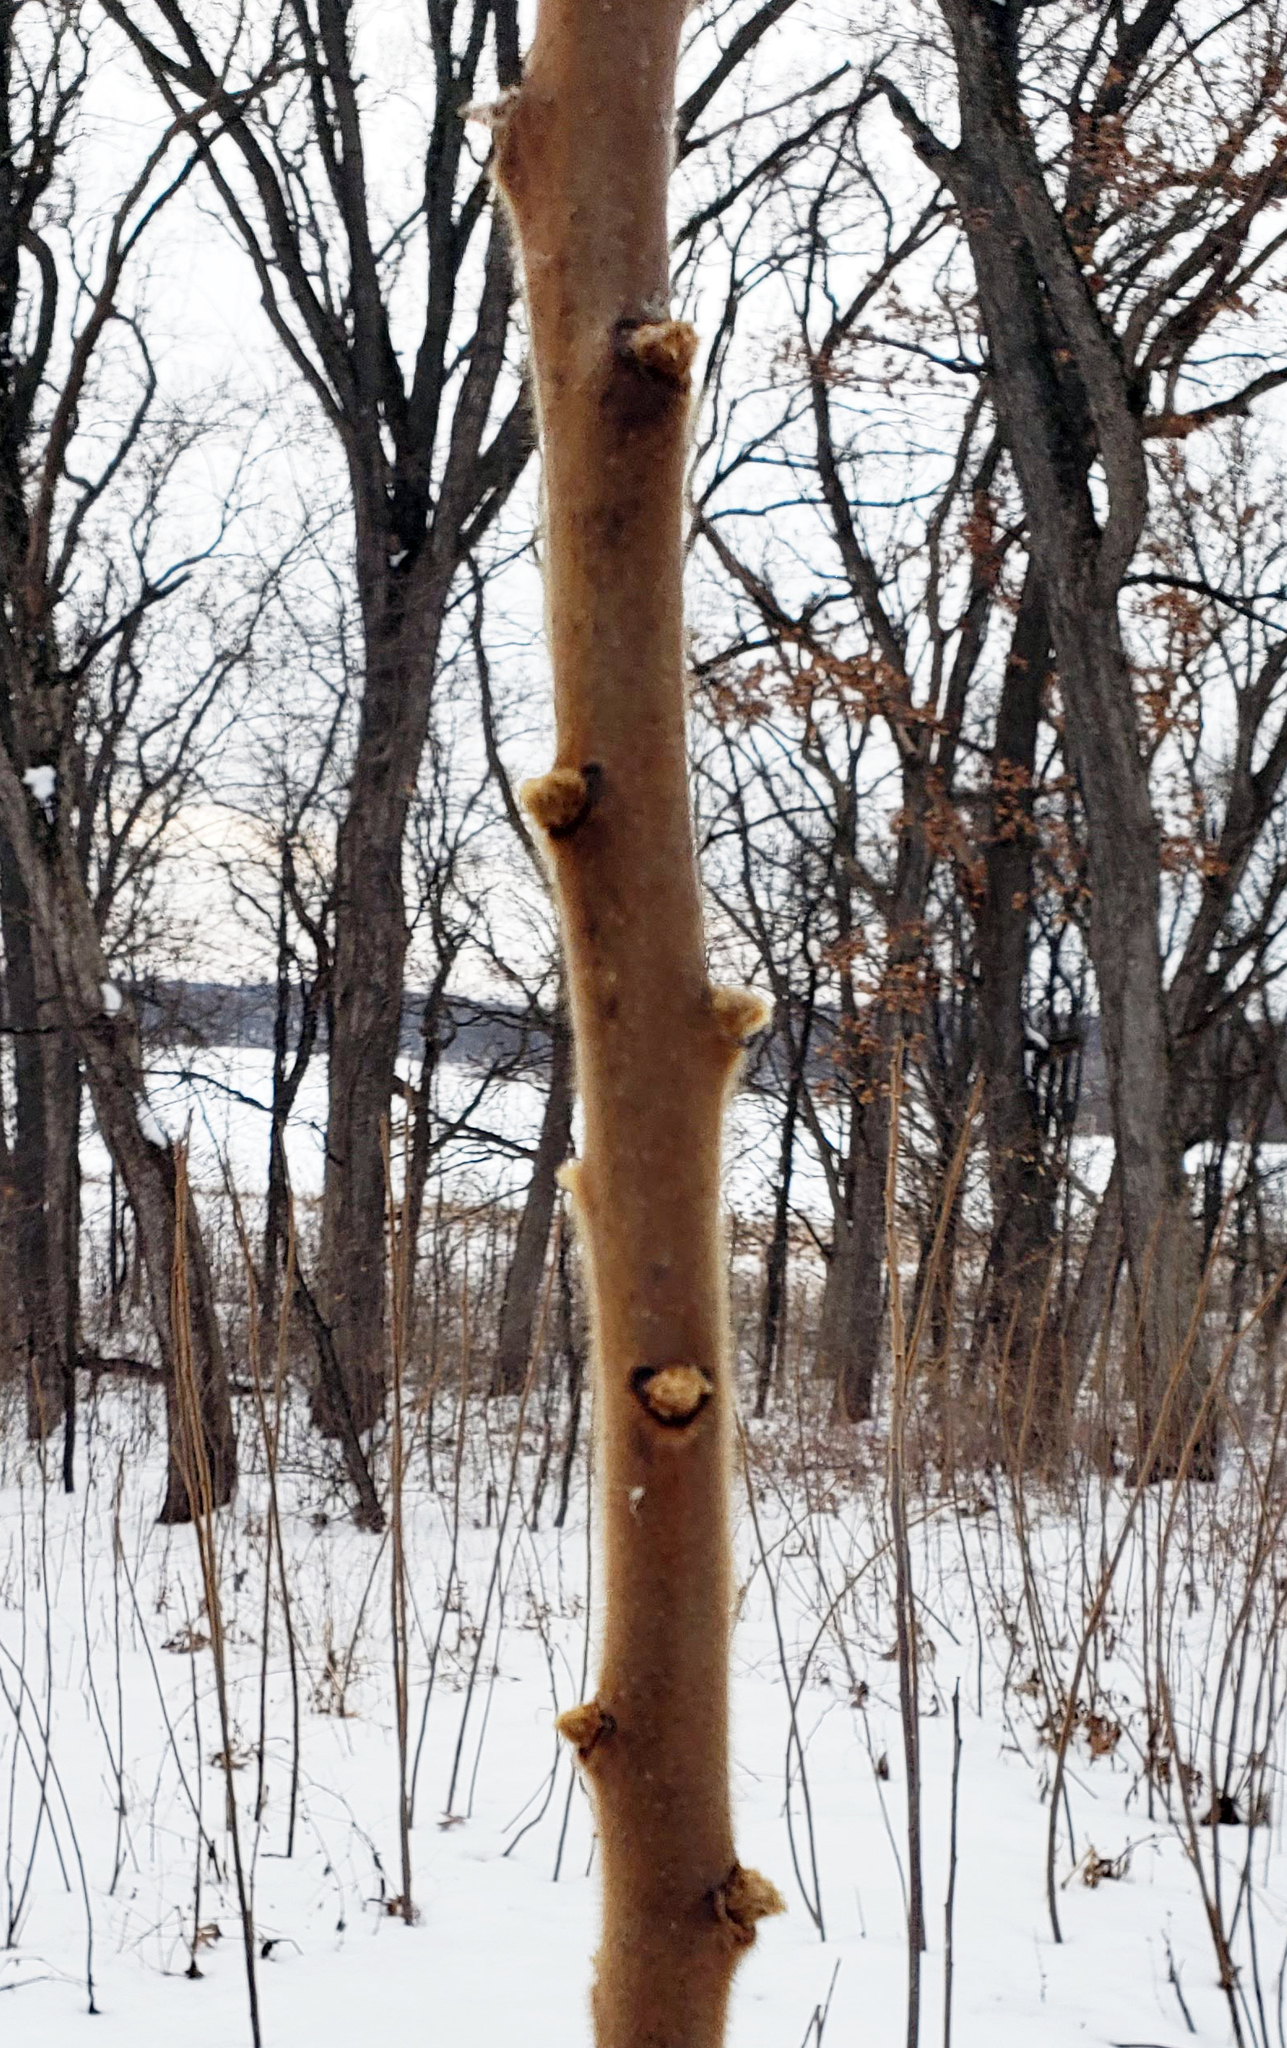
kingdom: Plantae
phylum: Tracheophyta
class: Magnoliopsida
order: Sapindales
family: Anacardiaceae
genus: Rhus
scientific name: Rhus typhina
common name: Staghorn sumac
